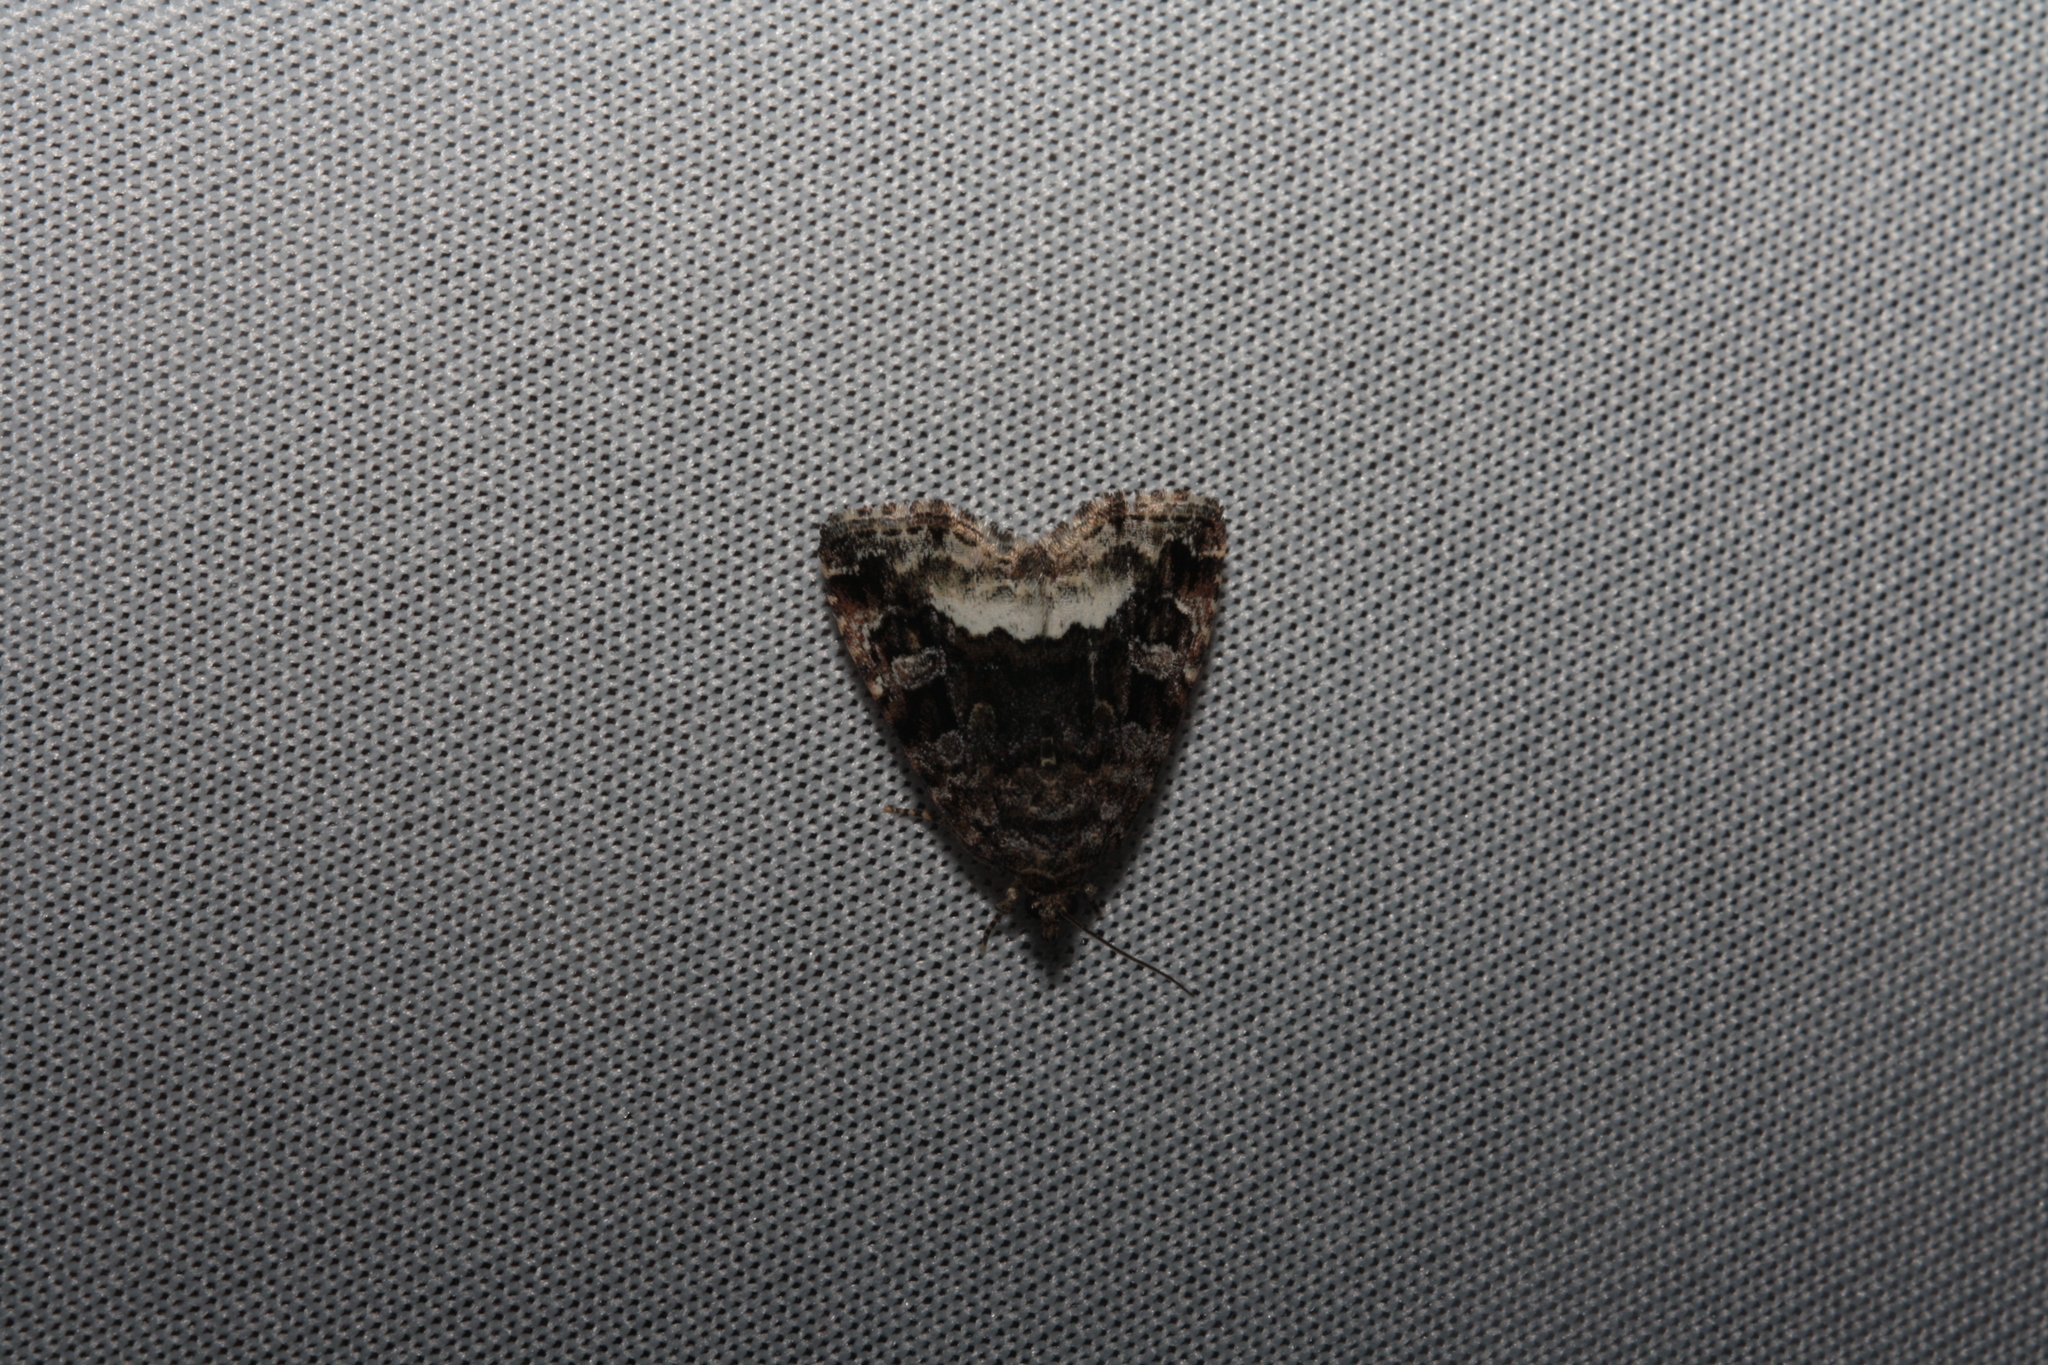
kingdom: Animalia
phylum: Arthropoda
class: Insecta
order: Lepidoptera
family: Noctuidae
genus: Deltote
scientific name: Deltote pygarga
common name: Marbled white spot
